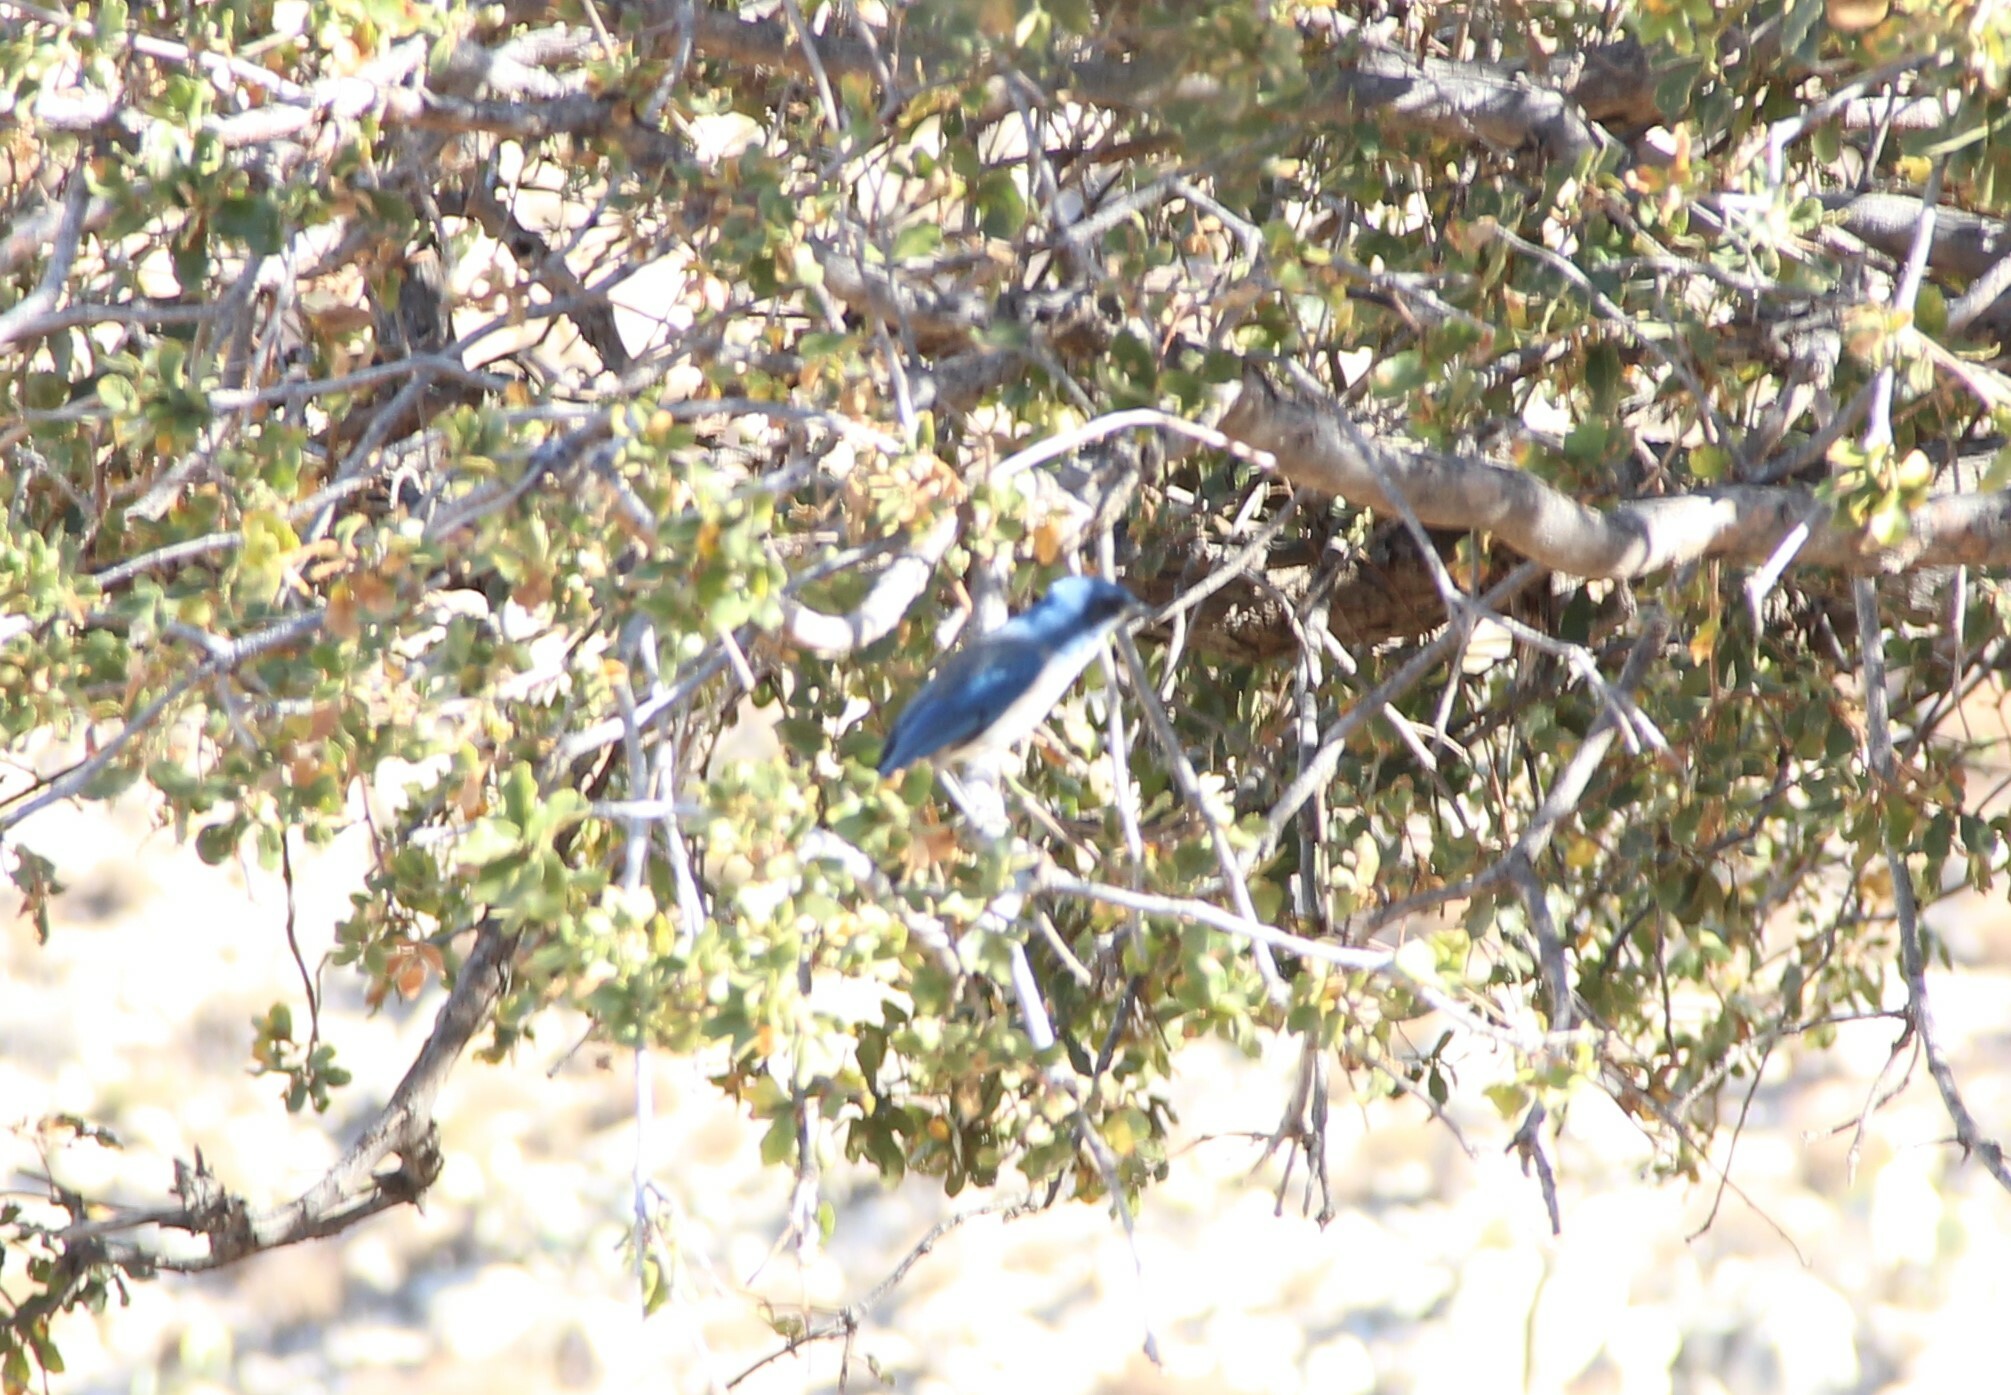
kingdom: Animalia
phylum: Chordata
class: Aves
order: Passeriformes
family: Corvidae
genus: Aphelocoma
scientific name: Aphelocoma wollweberi
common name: Mexican jay
